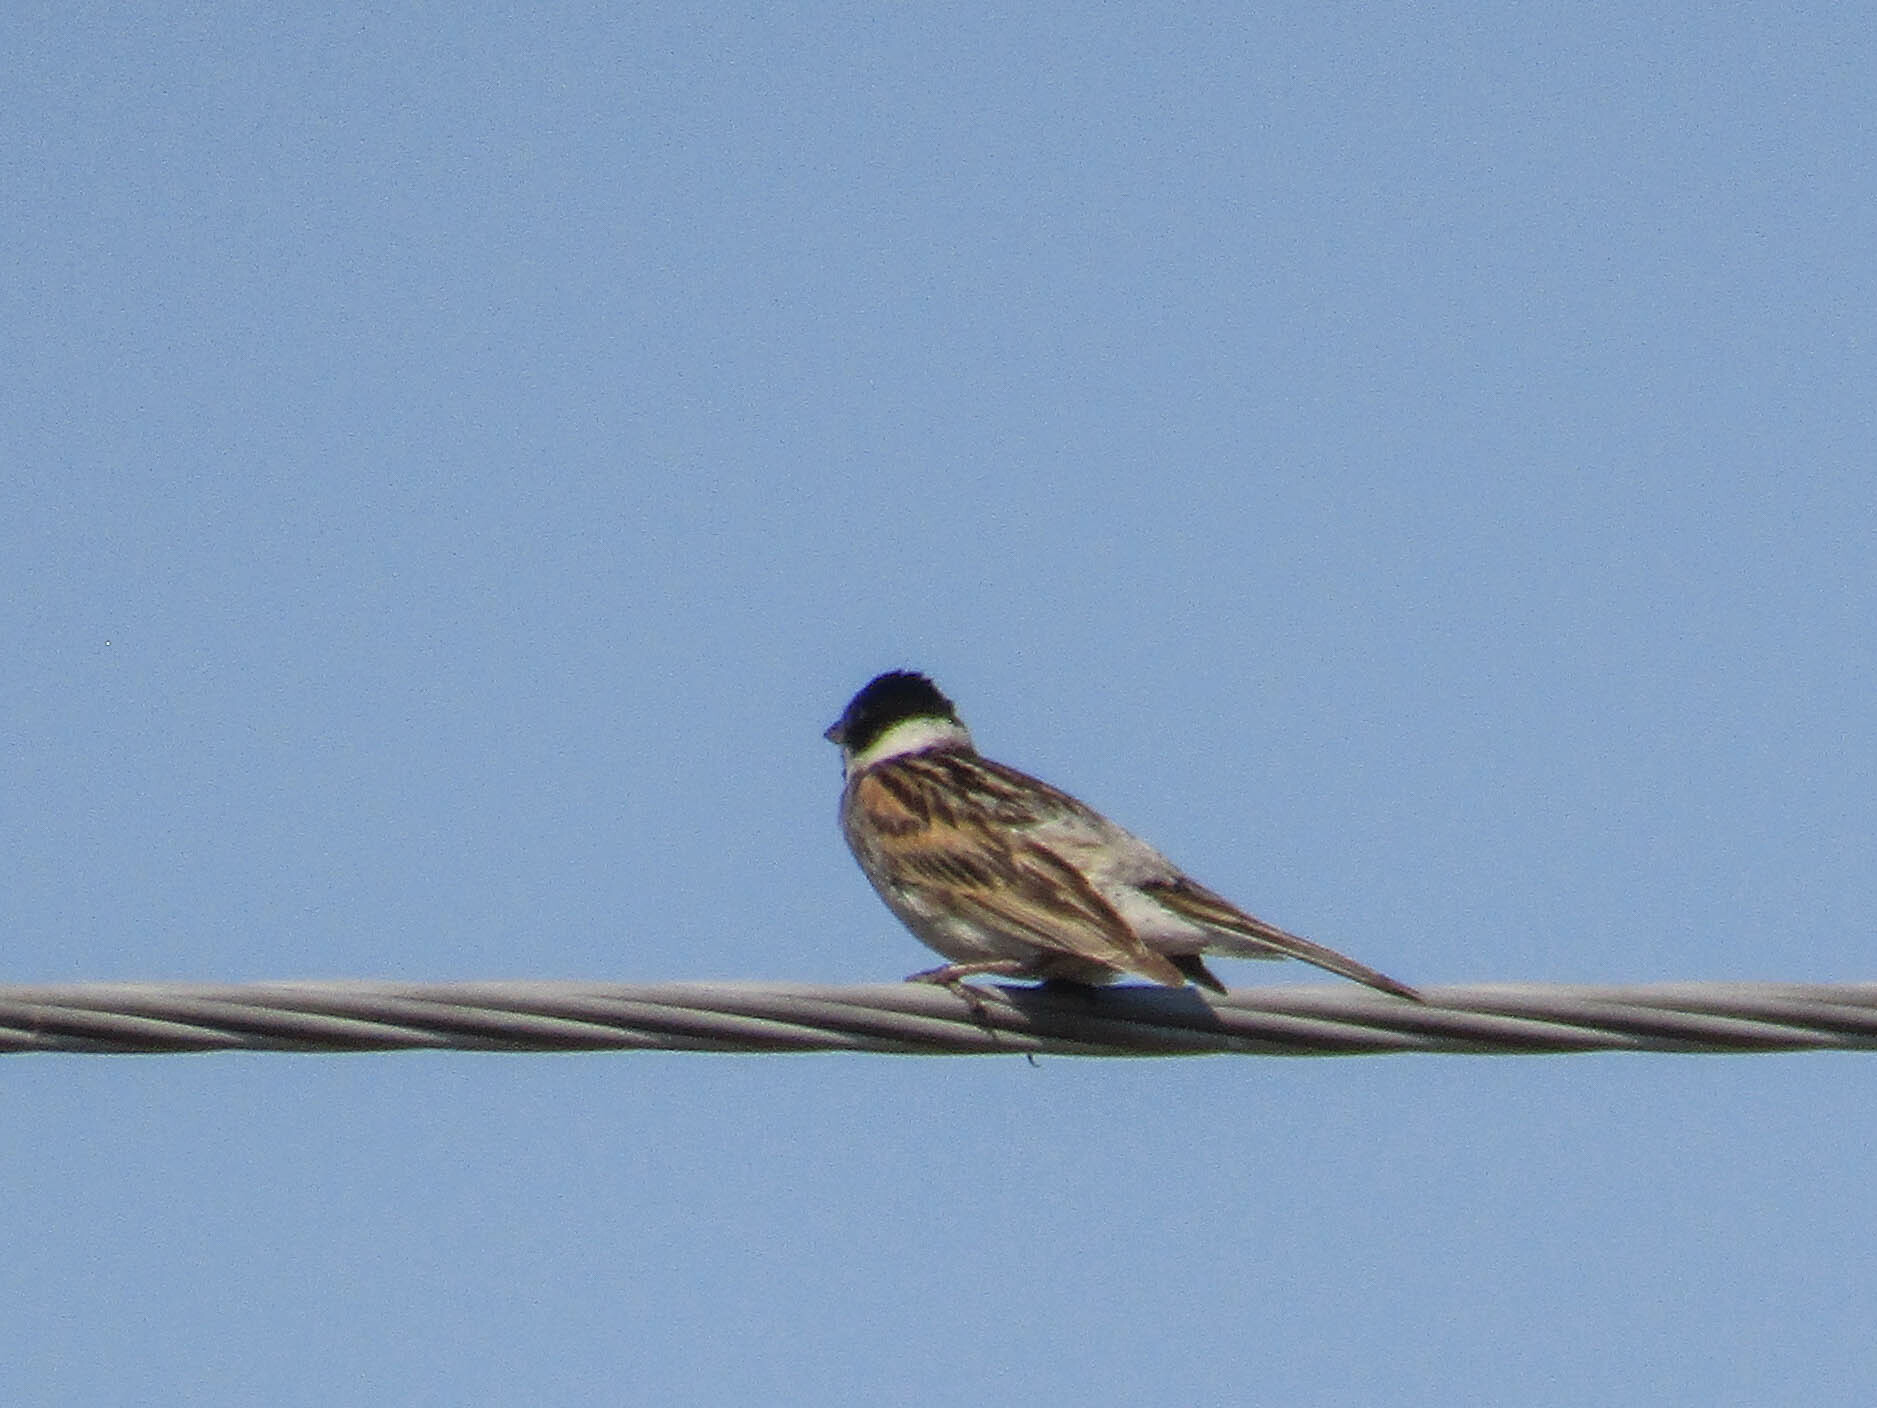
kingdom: Animalia
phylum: Chordata
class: Aves
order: Passeriformes
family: Emberizidae
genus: Emberiza
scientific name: Emberiza schoeniclus
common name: Reed bunting
